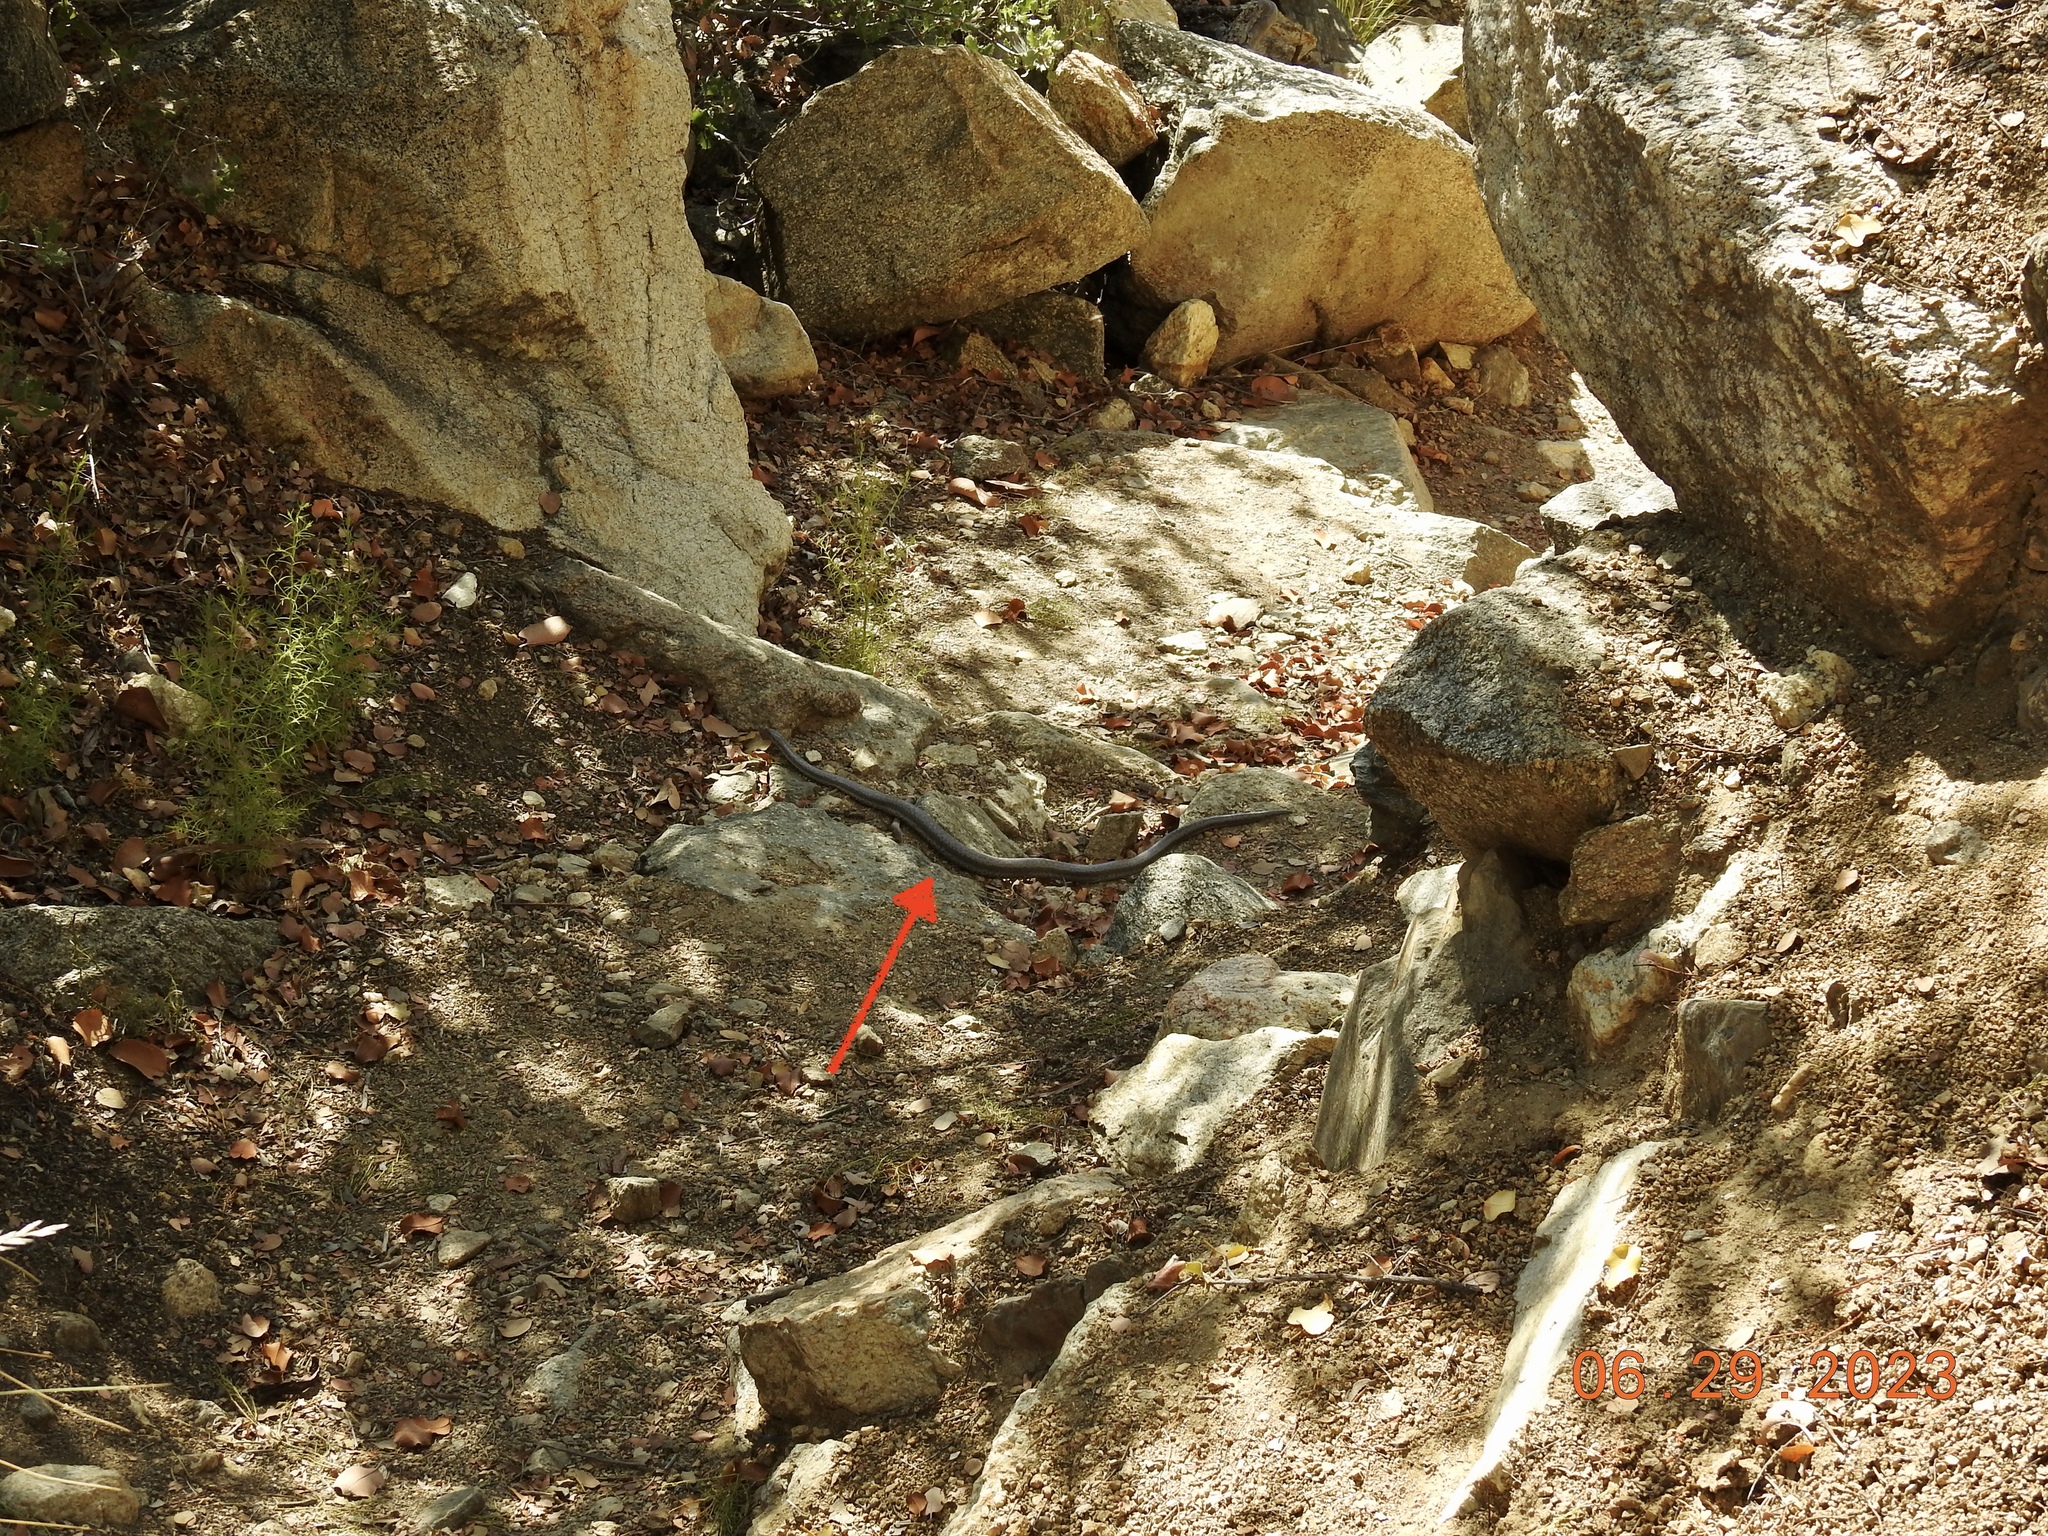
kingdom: Animalia
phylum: Chordata
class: Squamata
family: Boidae
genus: Lichanura
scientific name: Lichanura orcutti
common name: Northern three-lined boa
